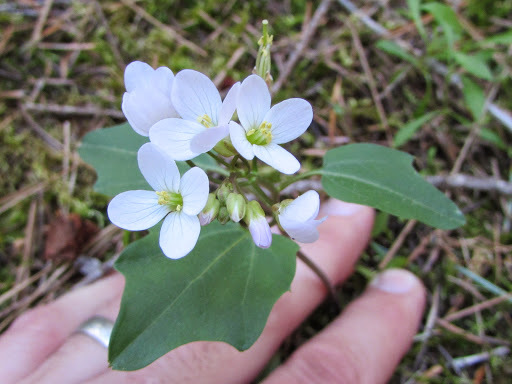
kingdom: Plantae
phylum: Tracheophyta
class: Magnoliopsida
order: Brassicales
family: Brassicaceae
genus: Cardamine
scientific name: Cardamine californica
